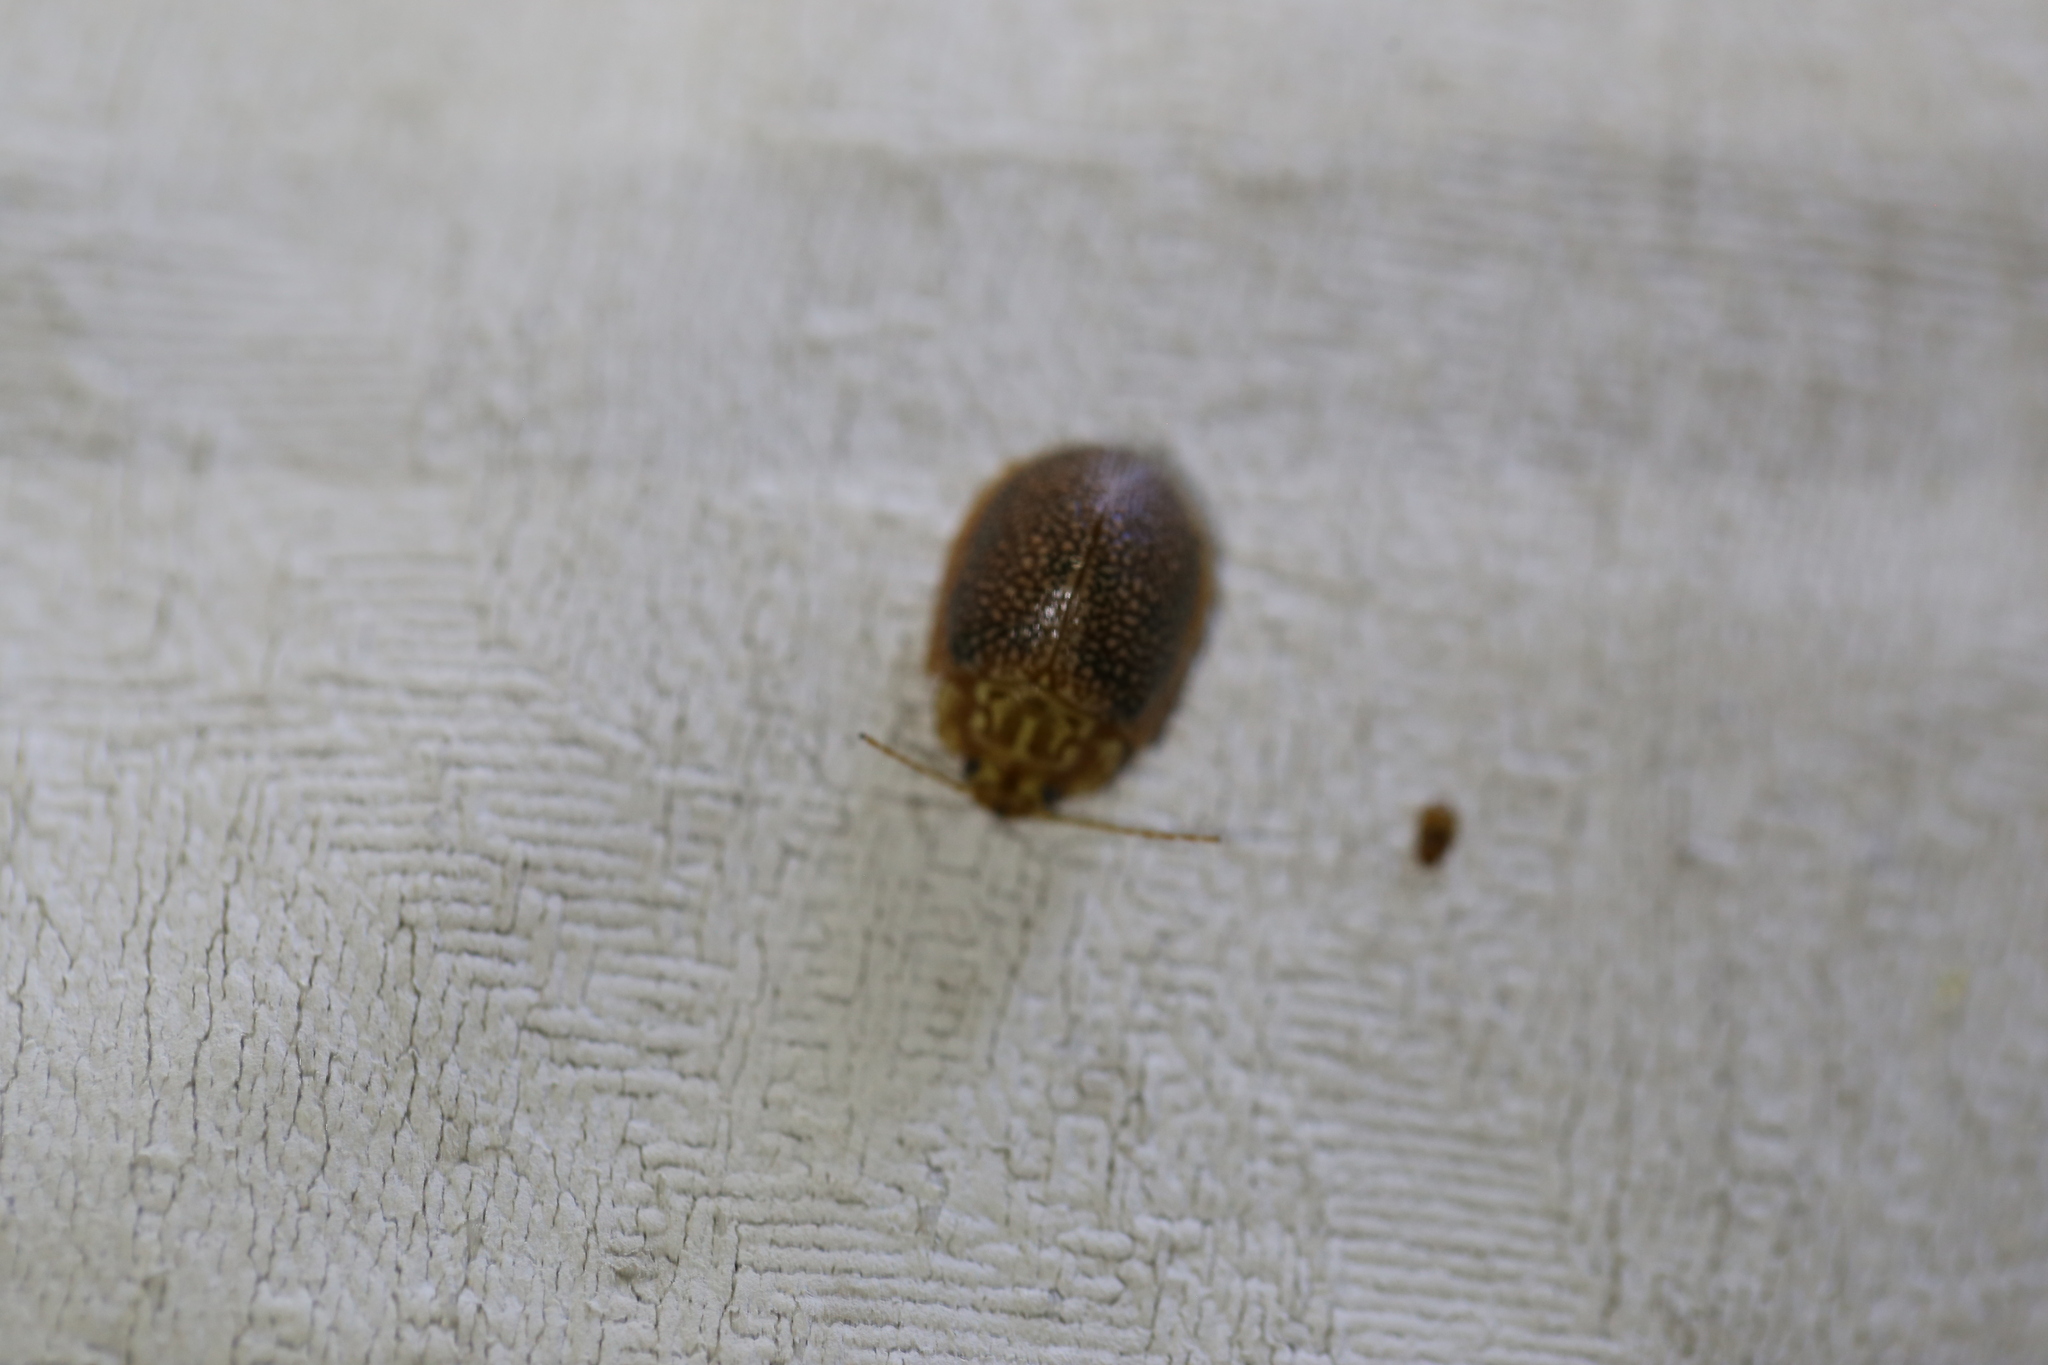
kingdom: Animalia
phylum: Arthropoda
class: Insecta
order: Coleoptera
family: Chrysomelidae
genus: Paropsis
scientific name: Paropsis
